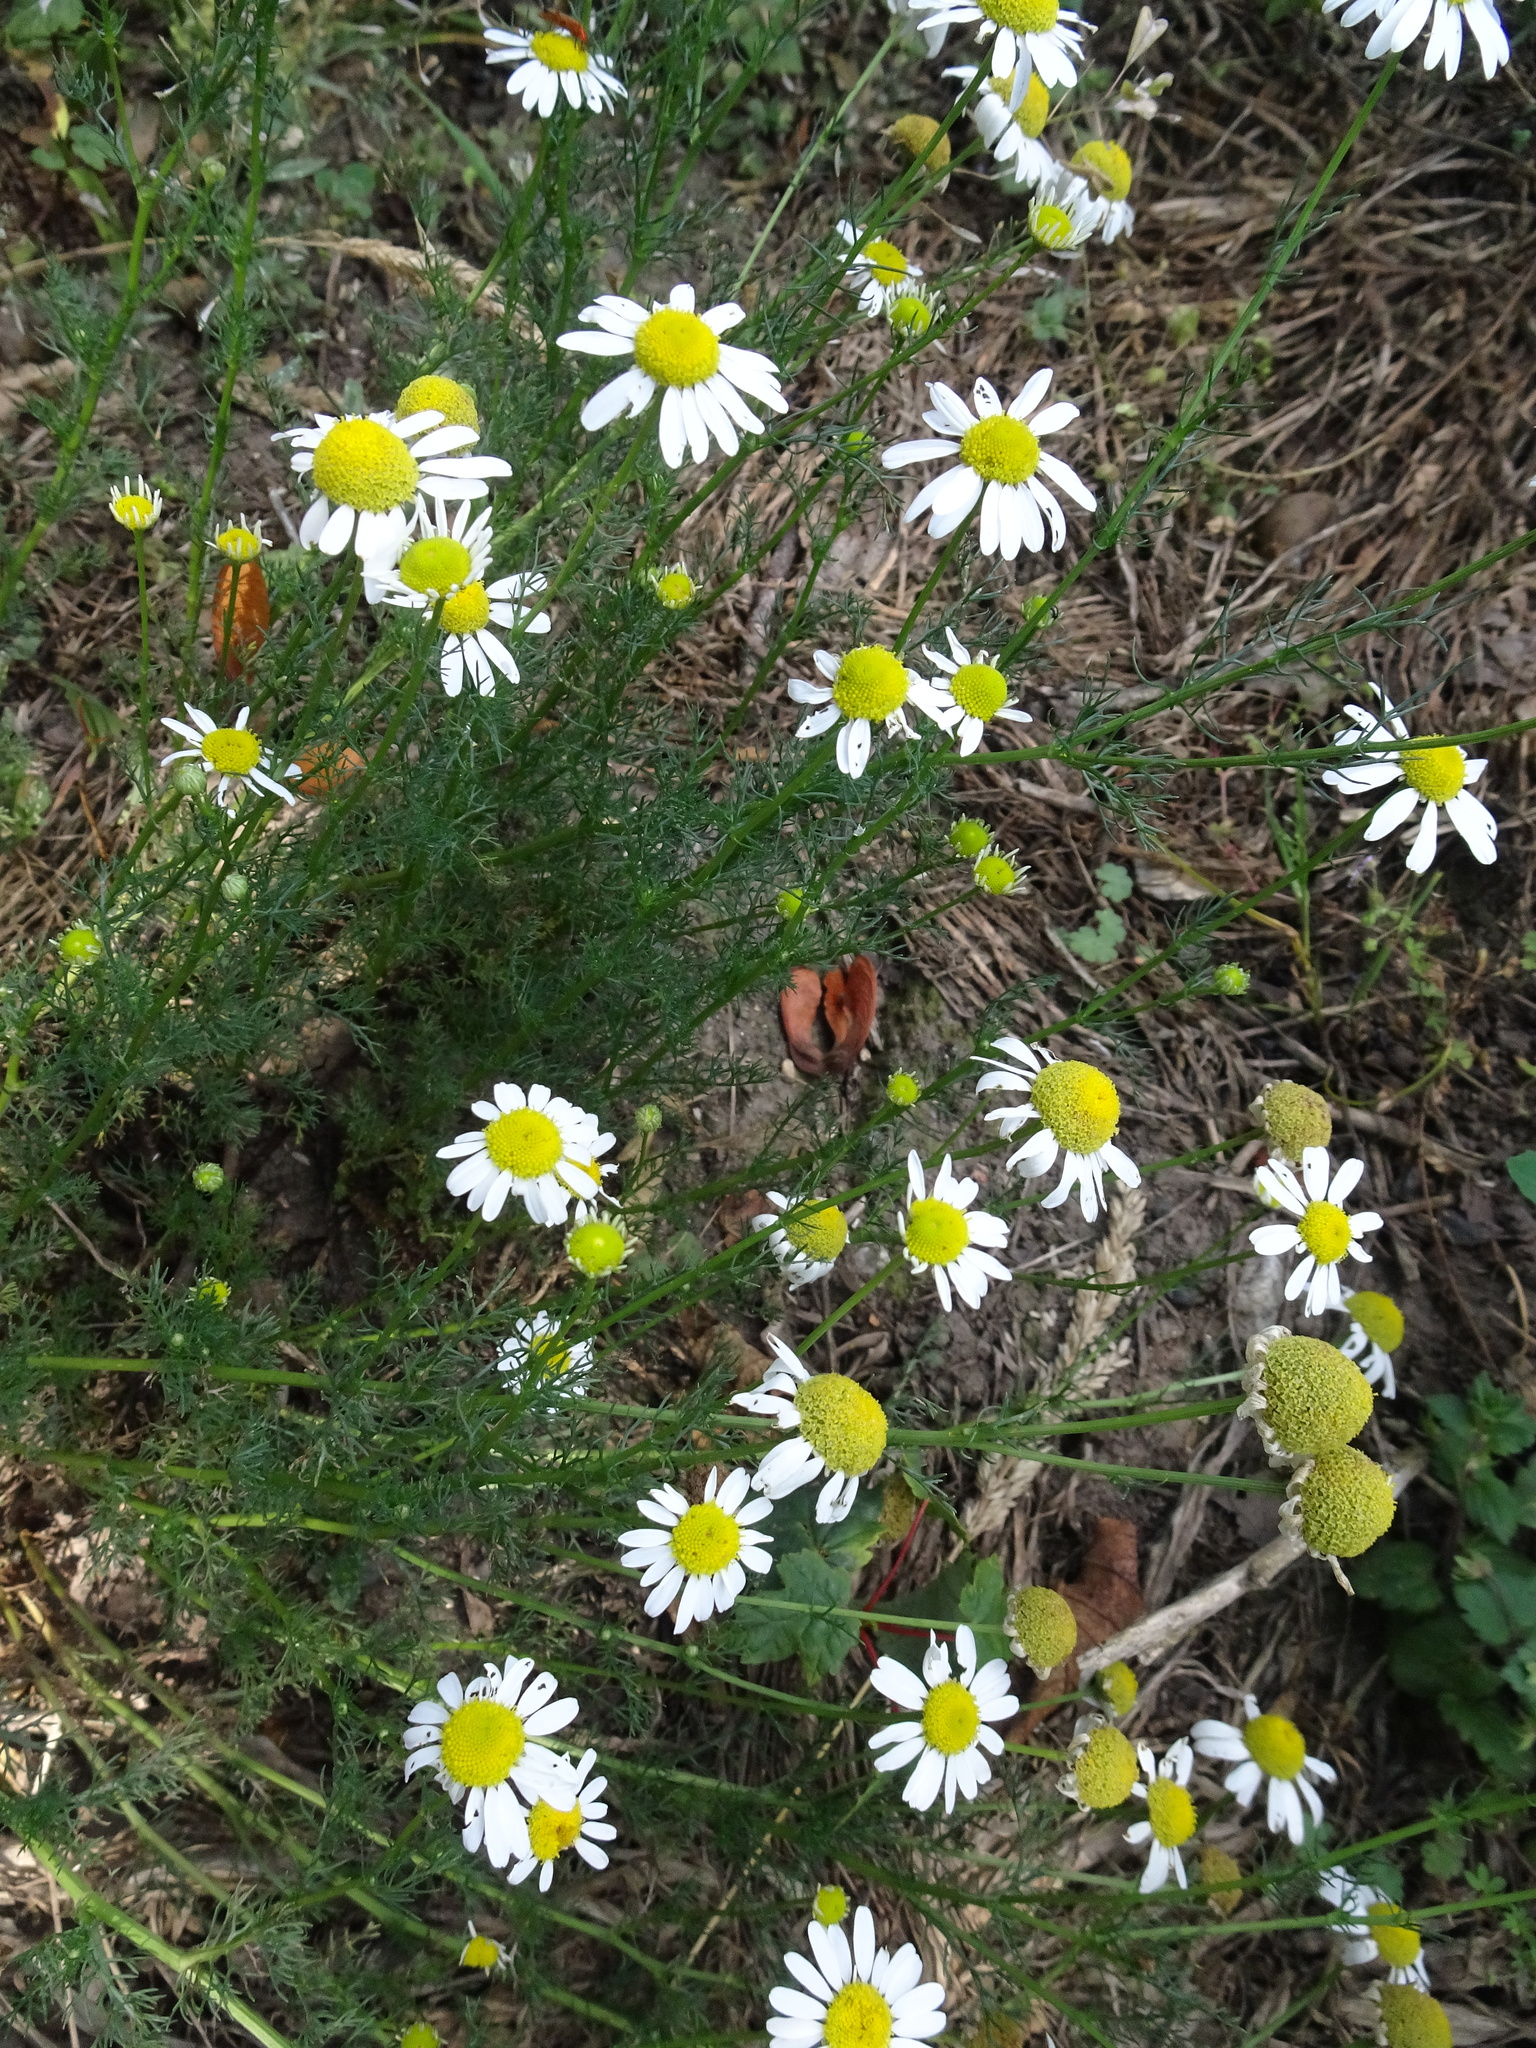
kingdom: Plantae
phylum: Tracheophyta
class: Magnoliopsida
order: Asterales
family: Asteraceae
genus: Tripleurospermum
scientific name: Tripleurospermum inodorum
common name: Scentless mayweed
